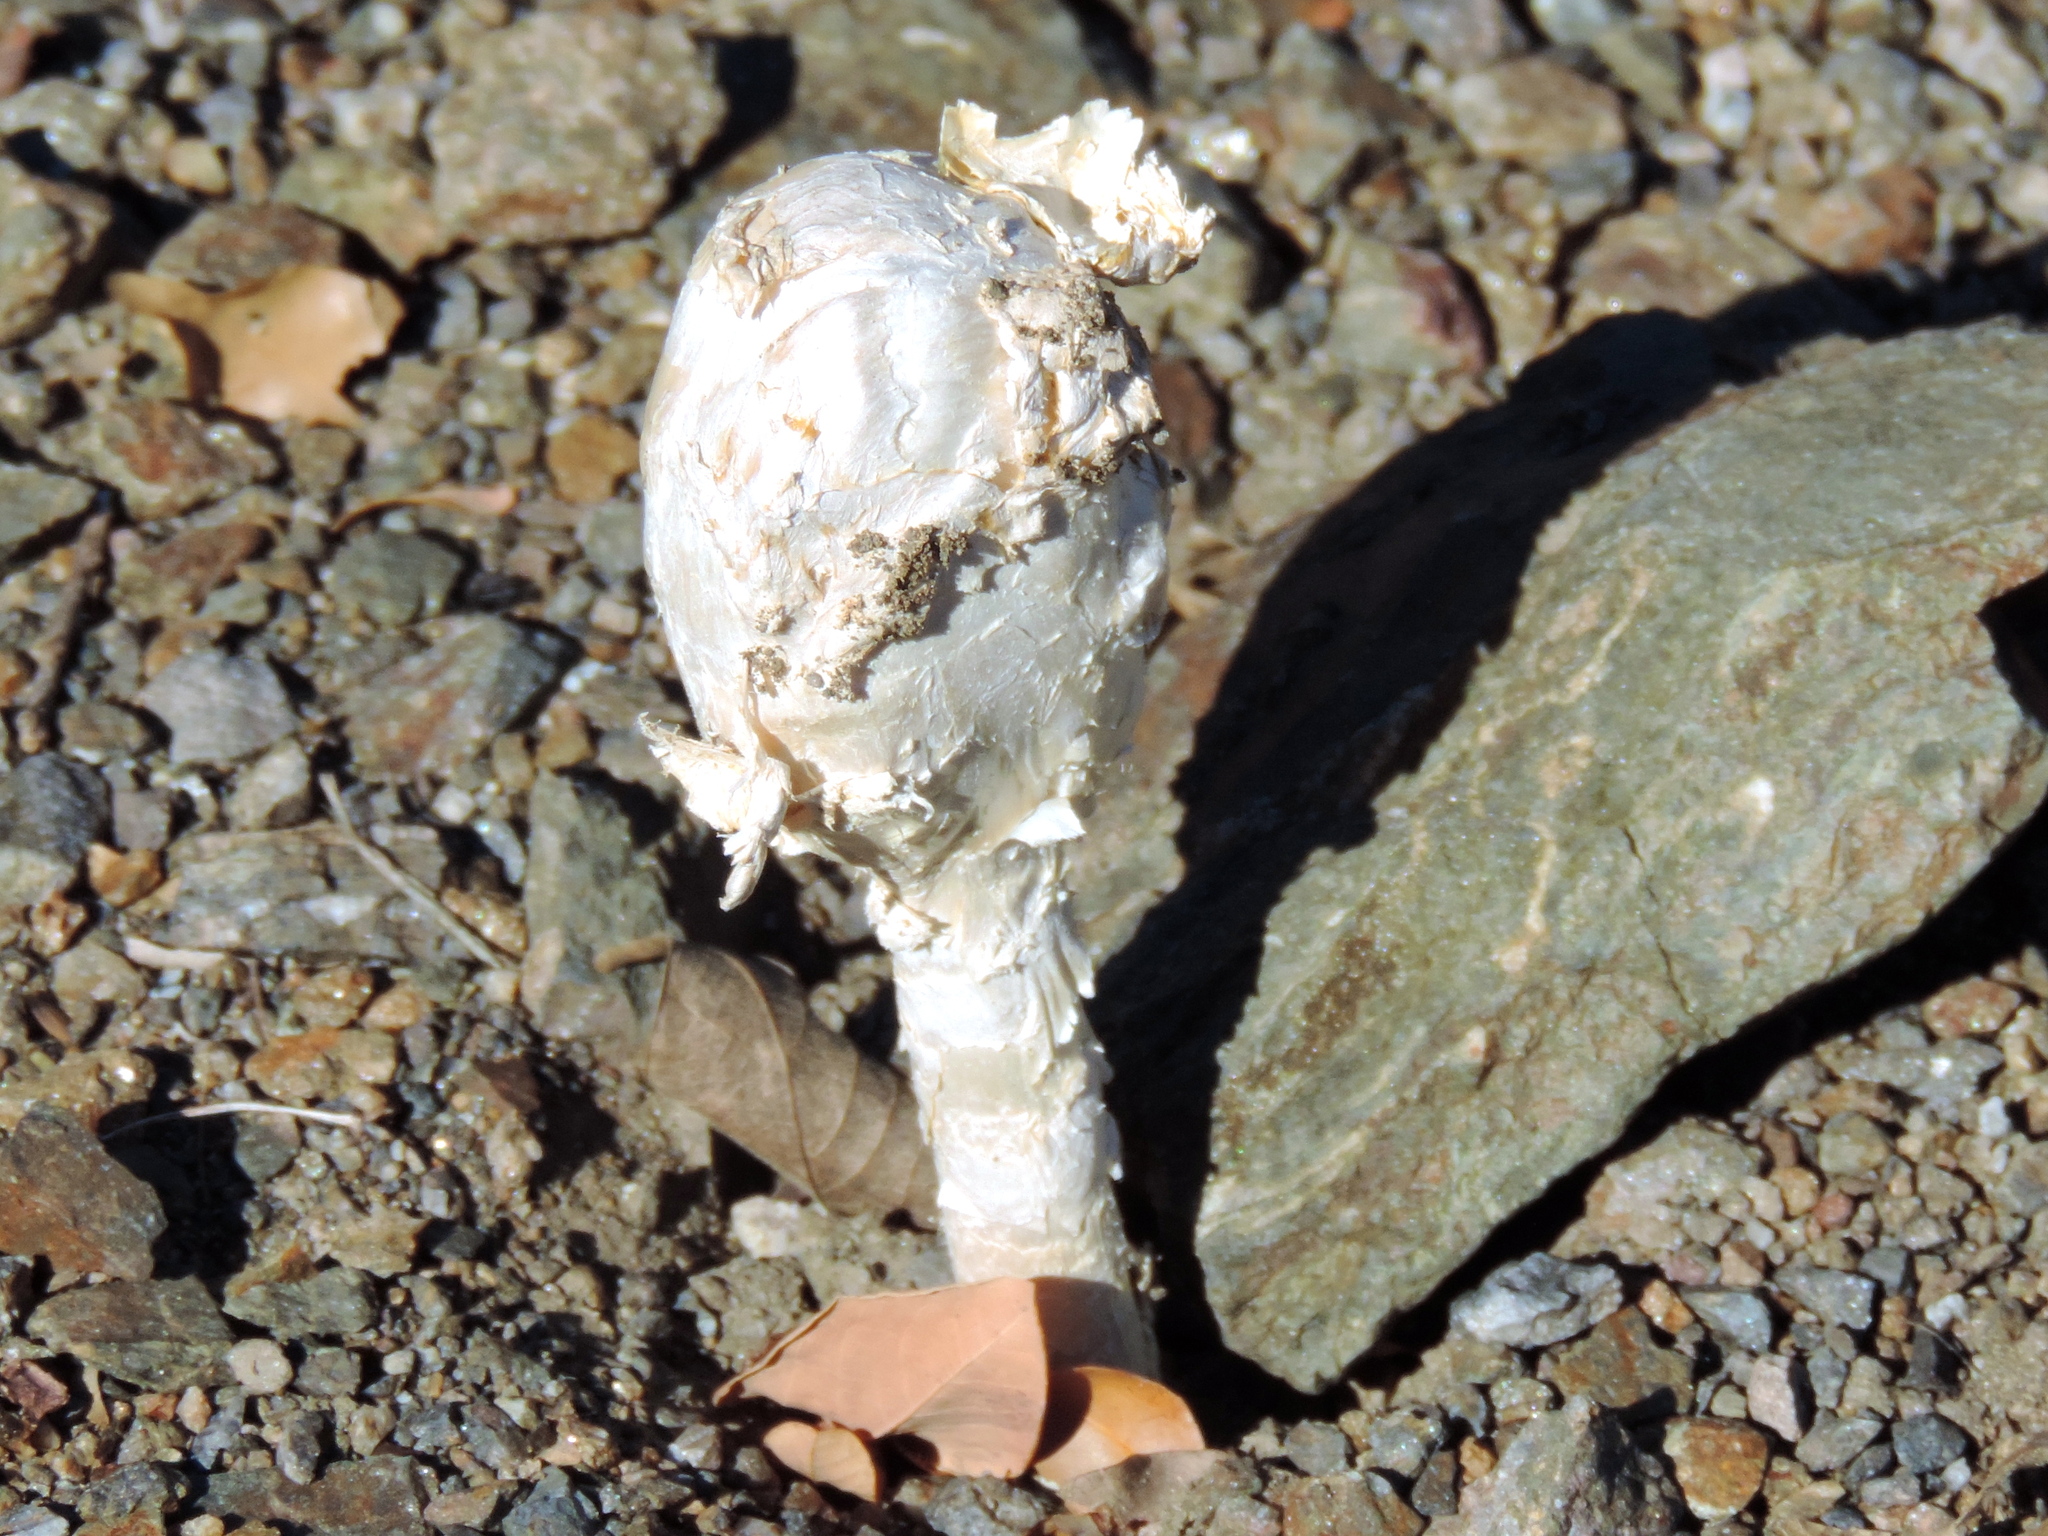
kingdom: Fungi
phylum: Basidiomycota
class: Agaricomycetes
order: Agaricales
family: Agaricaceae
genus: Podaxis
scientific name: Podaxis pistillaris
